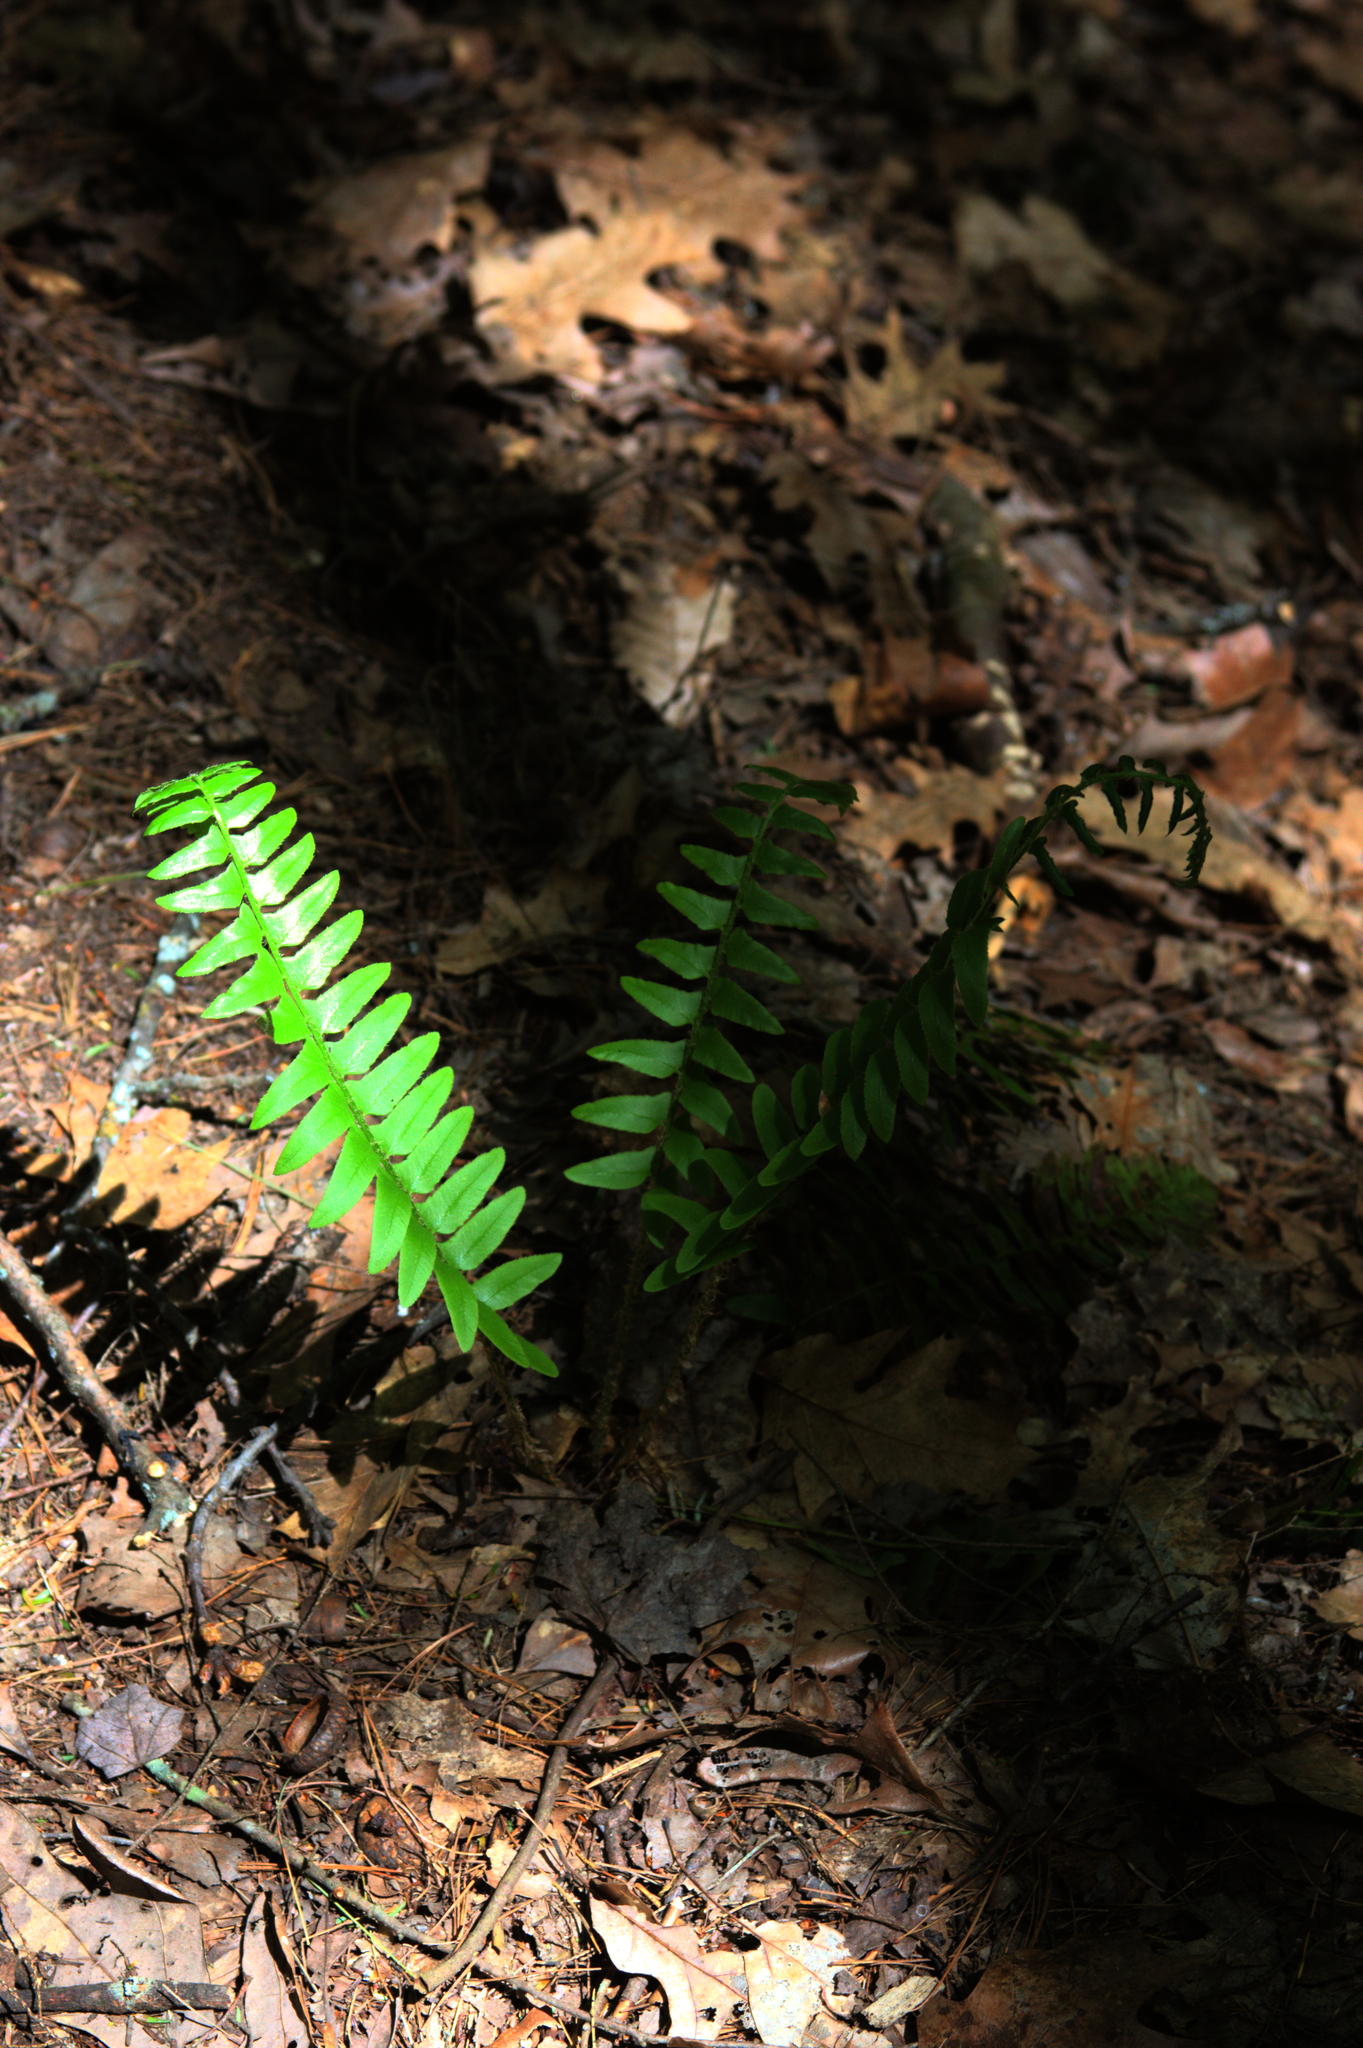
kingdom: Plantae
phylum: Tracheophyta
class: Polypodiopsida
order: Polypodiales
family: Dryopteridaceae
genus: Polystichum
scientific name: Polystichum acrostichoides
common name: Christmas fern
